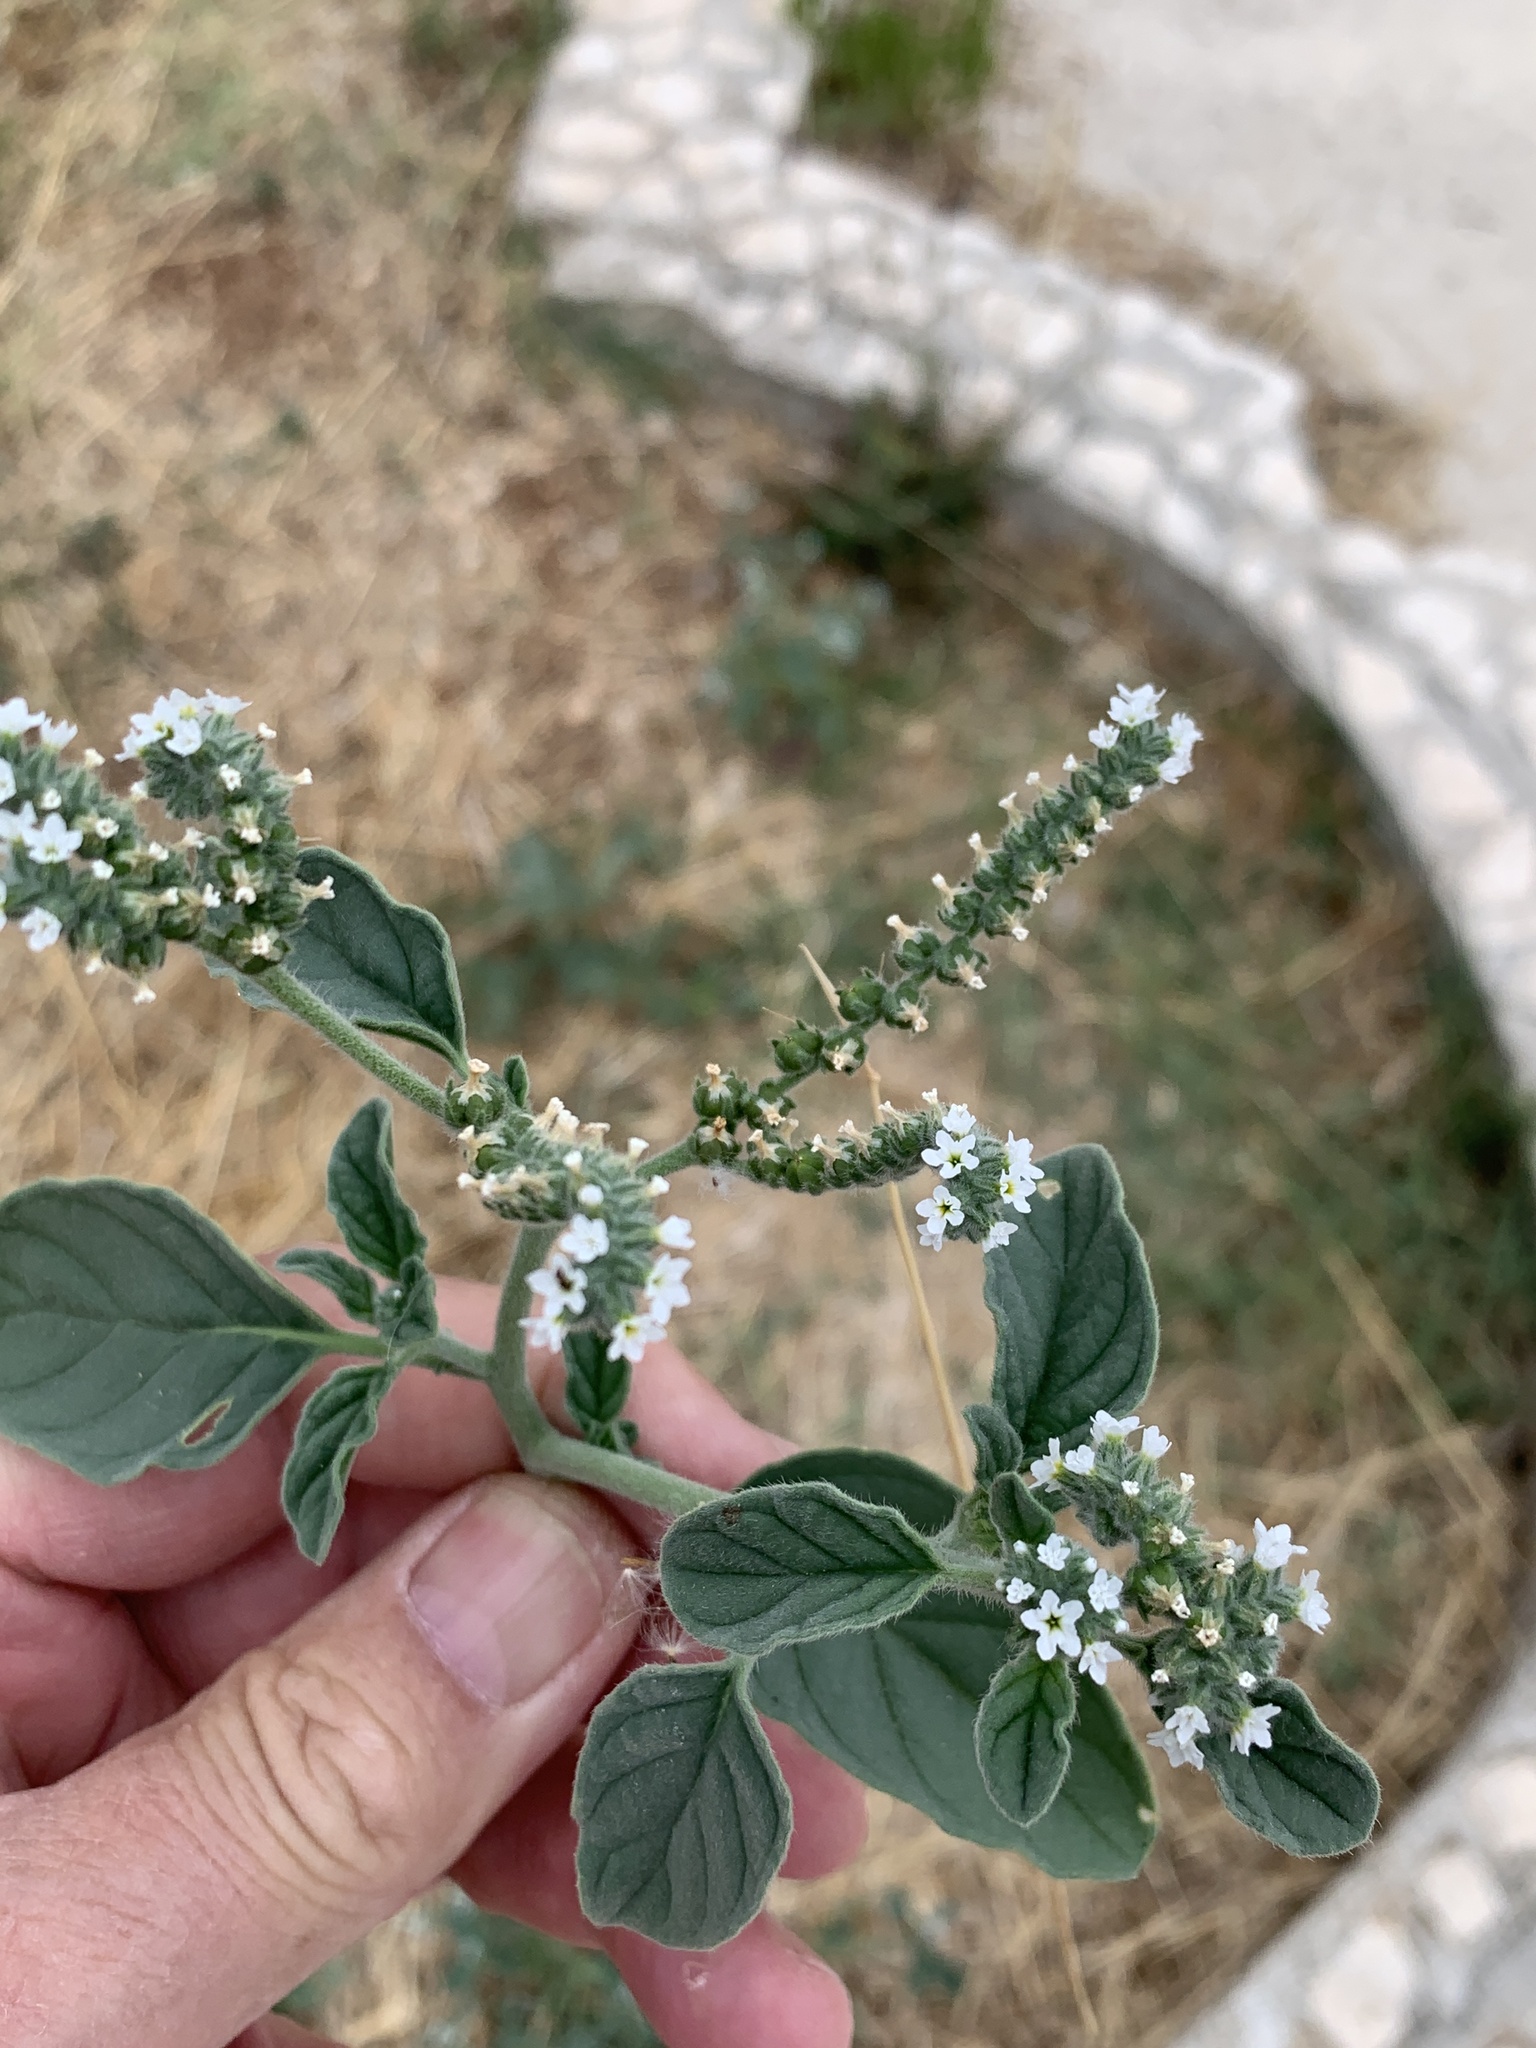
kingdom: Plantae
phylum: Tracheophyta
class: Magnoliopsida
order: Boraginales
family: Heliotropiaceae
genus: Heliotropium
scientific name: Heliotropium europaeum
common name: European heliotrope
